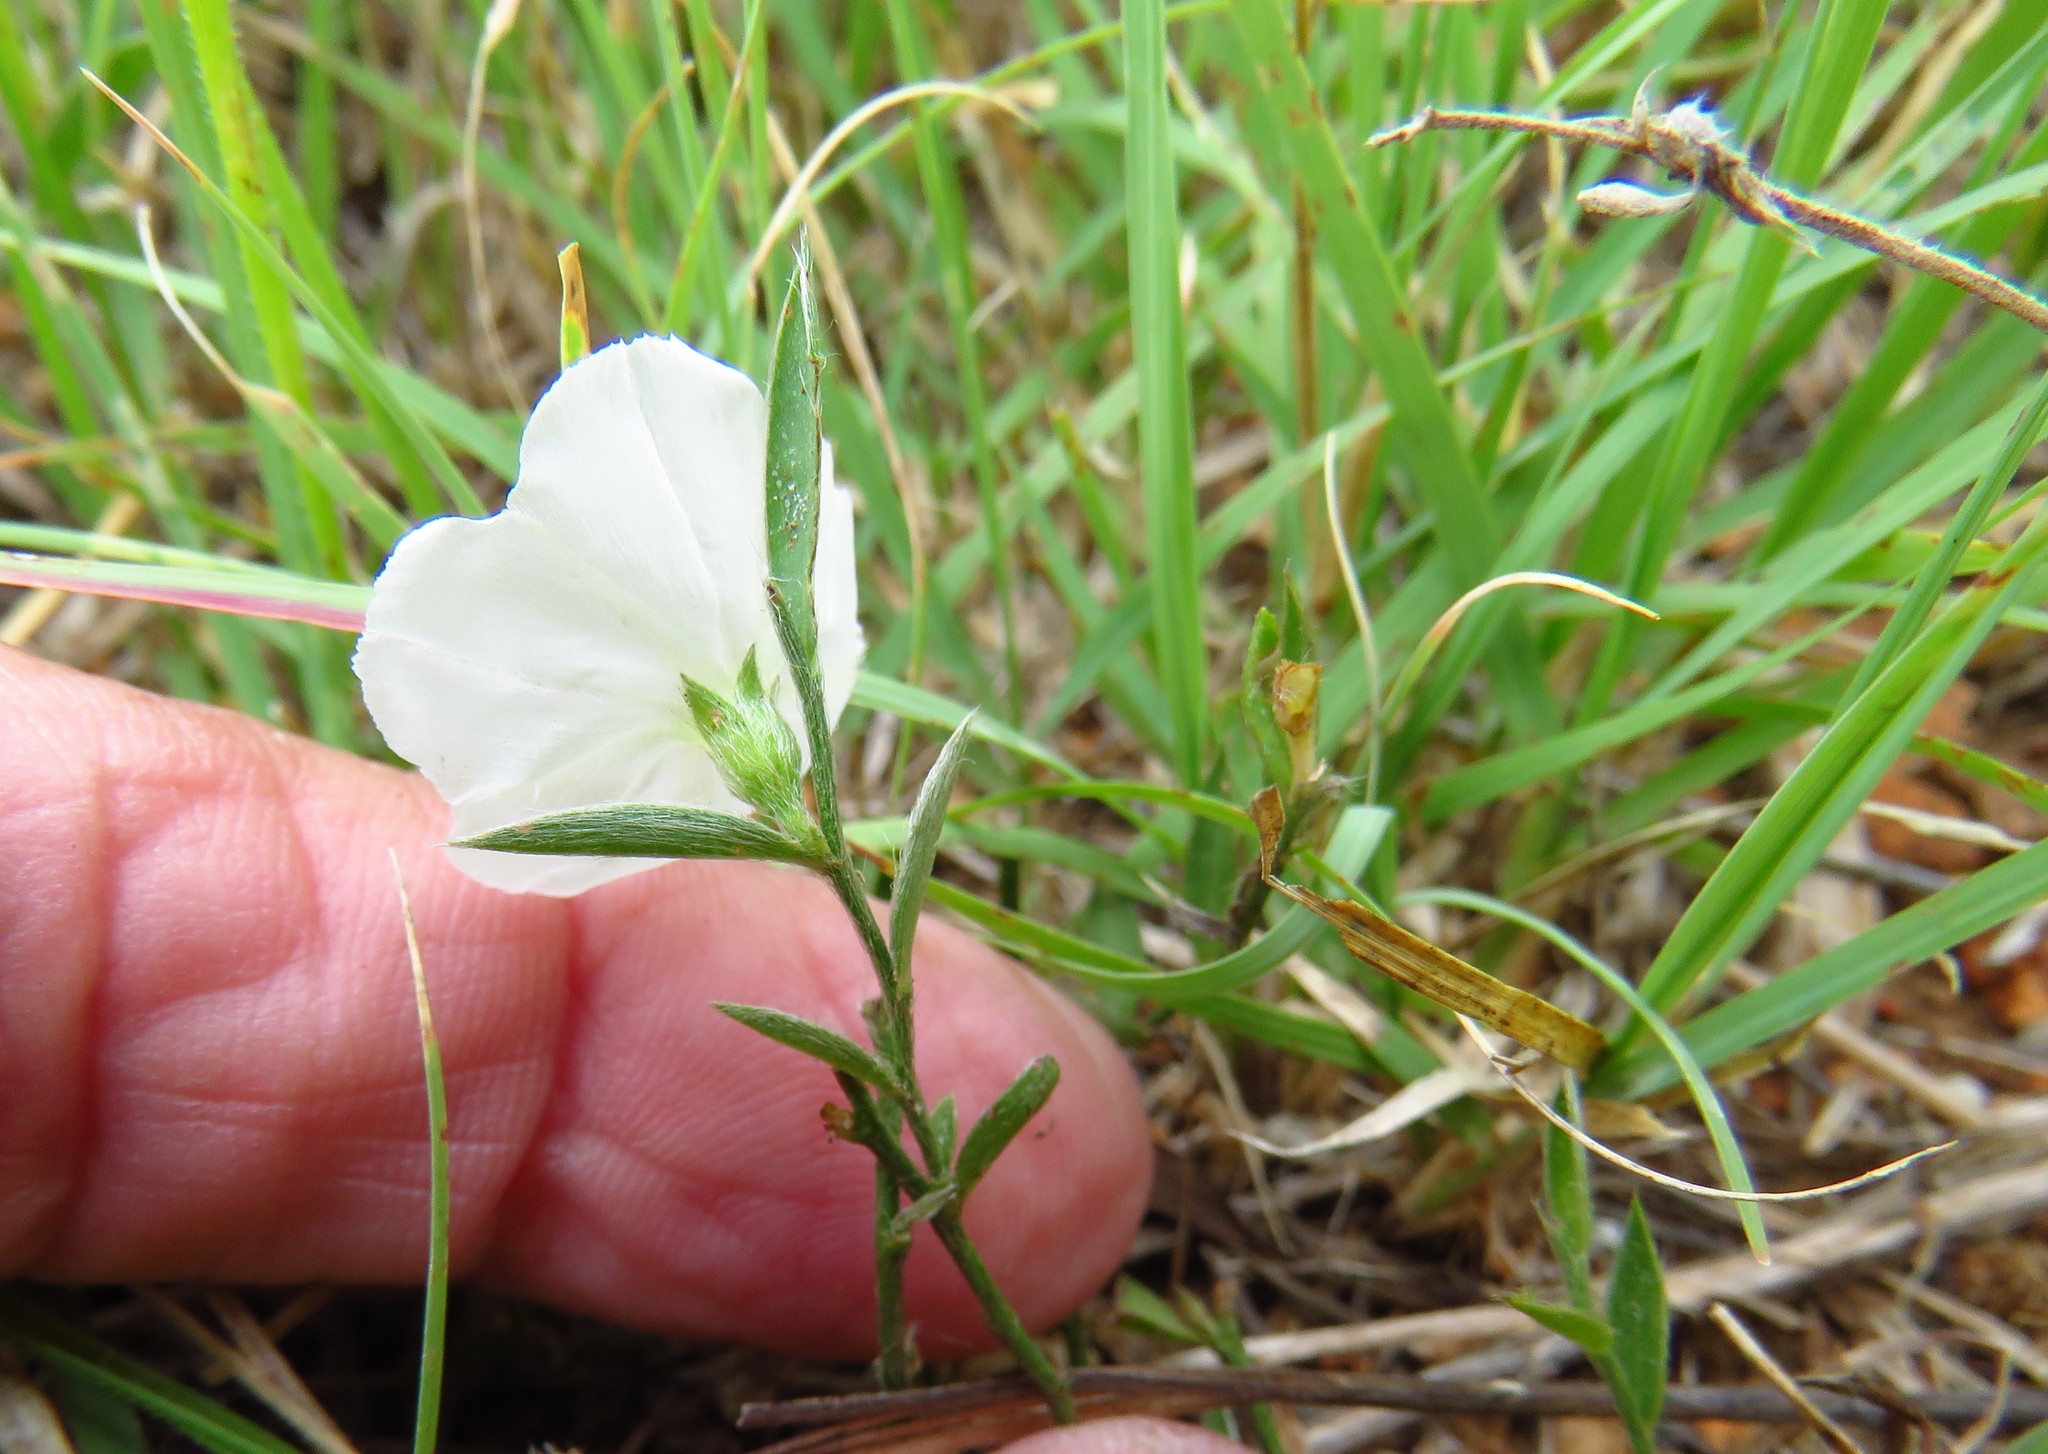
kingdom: Plantae
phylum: Tracheophyta
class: Magnoliopsida
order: Solanales
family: Convolvulaceae
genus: Evolvulus
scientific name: Evolvulus sericeus
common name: Blue dots
